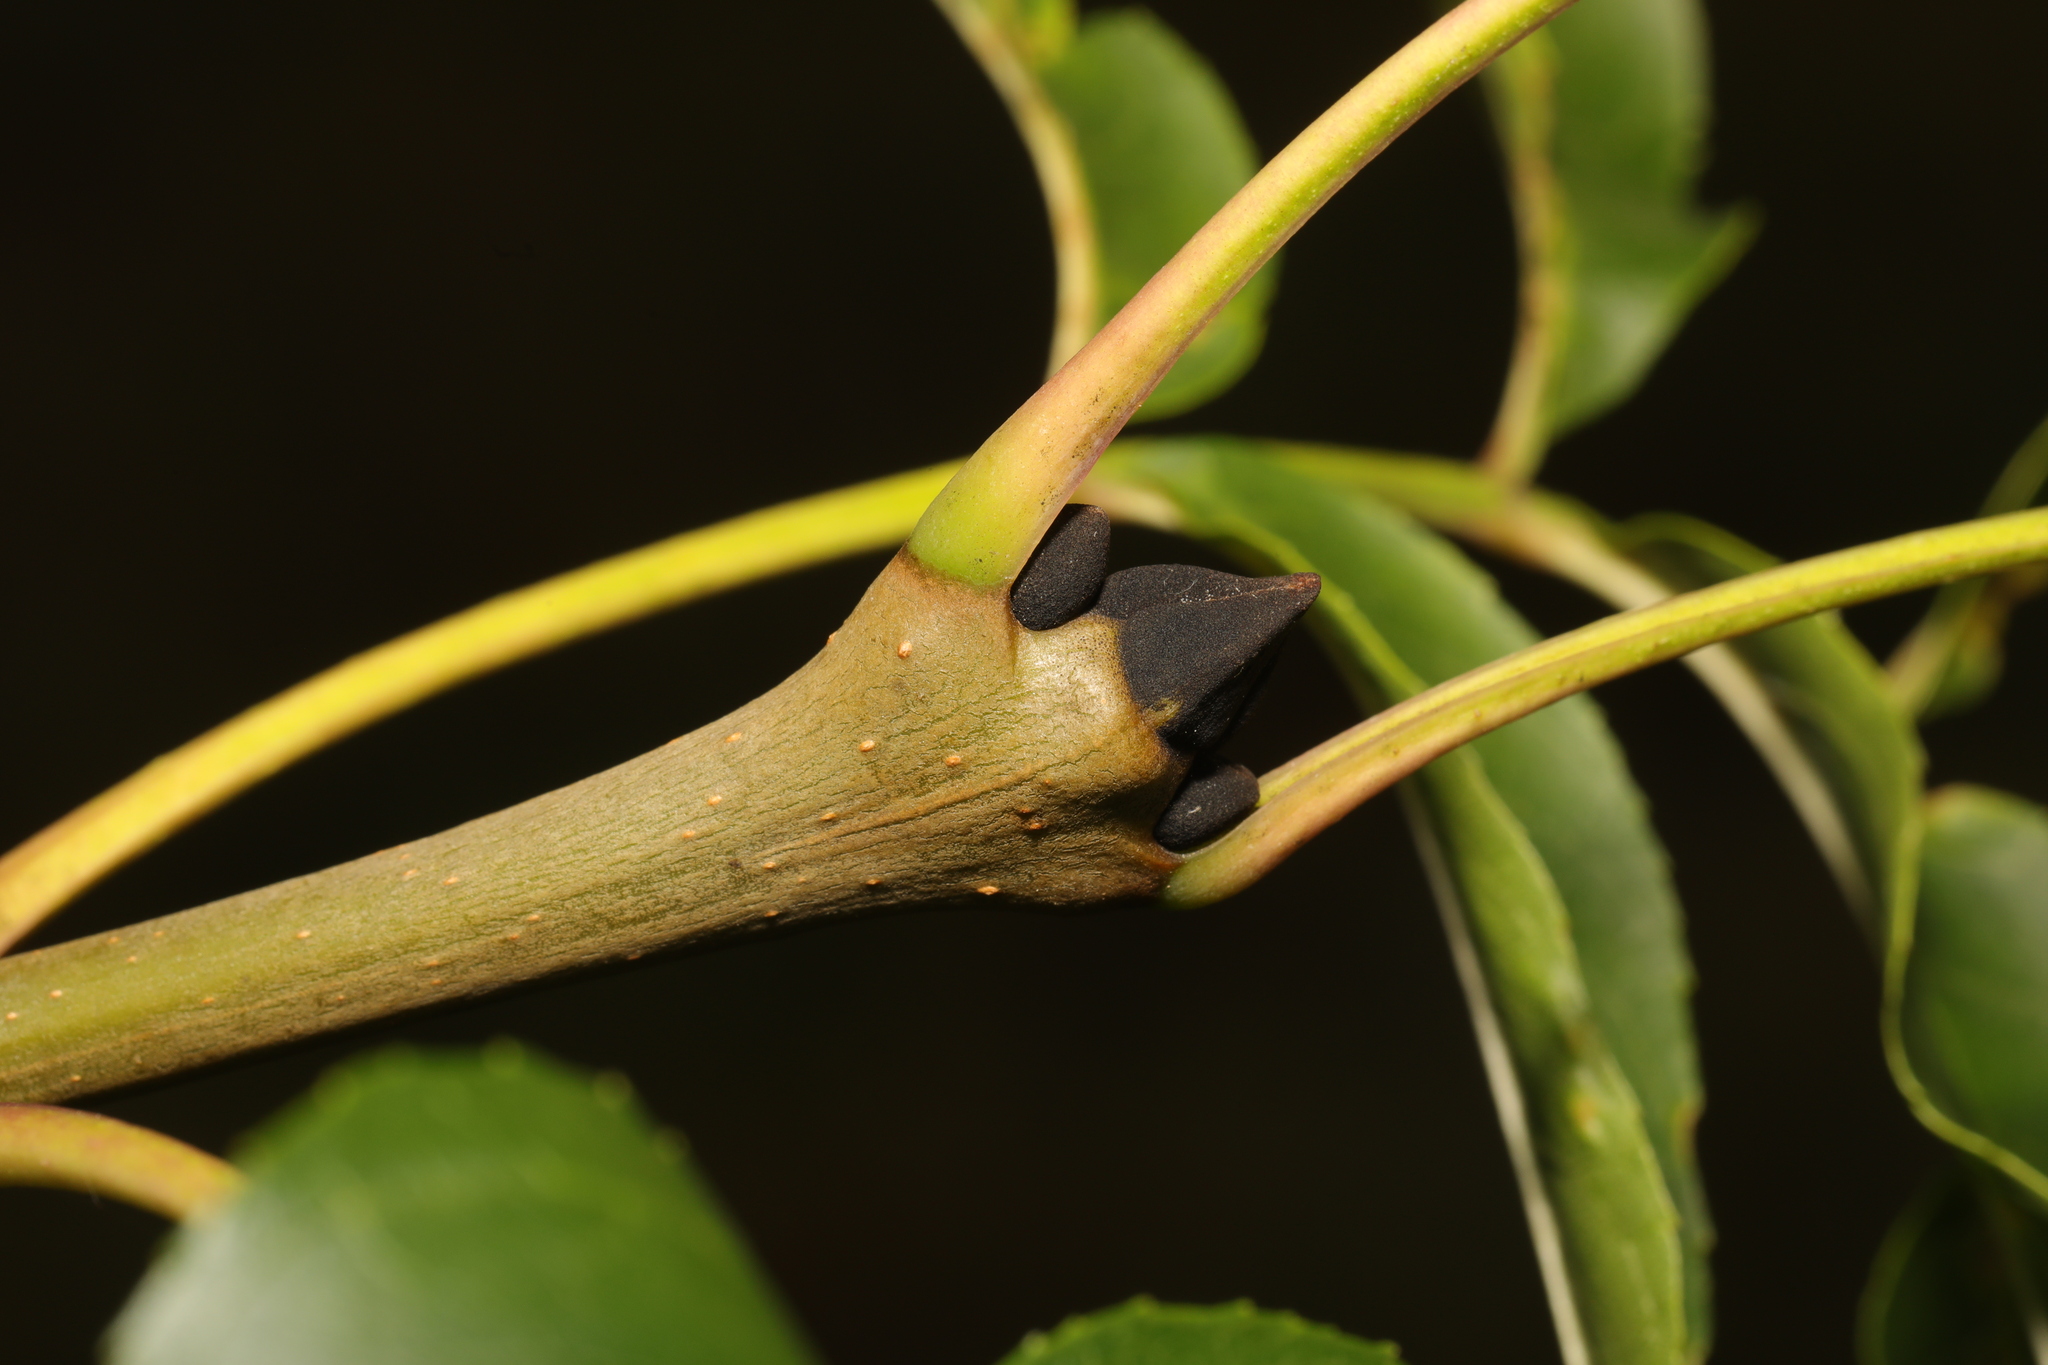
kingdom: Plantae
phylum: Tracheophyta
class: Magnoliopsida
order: Lamiales
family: Oleaceae
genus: Fraxinus
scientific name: Fraxinus excelsior
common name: European ash
